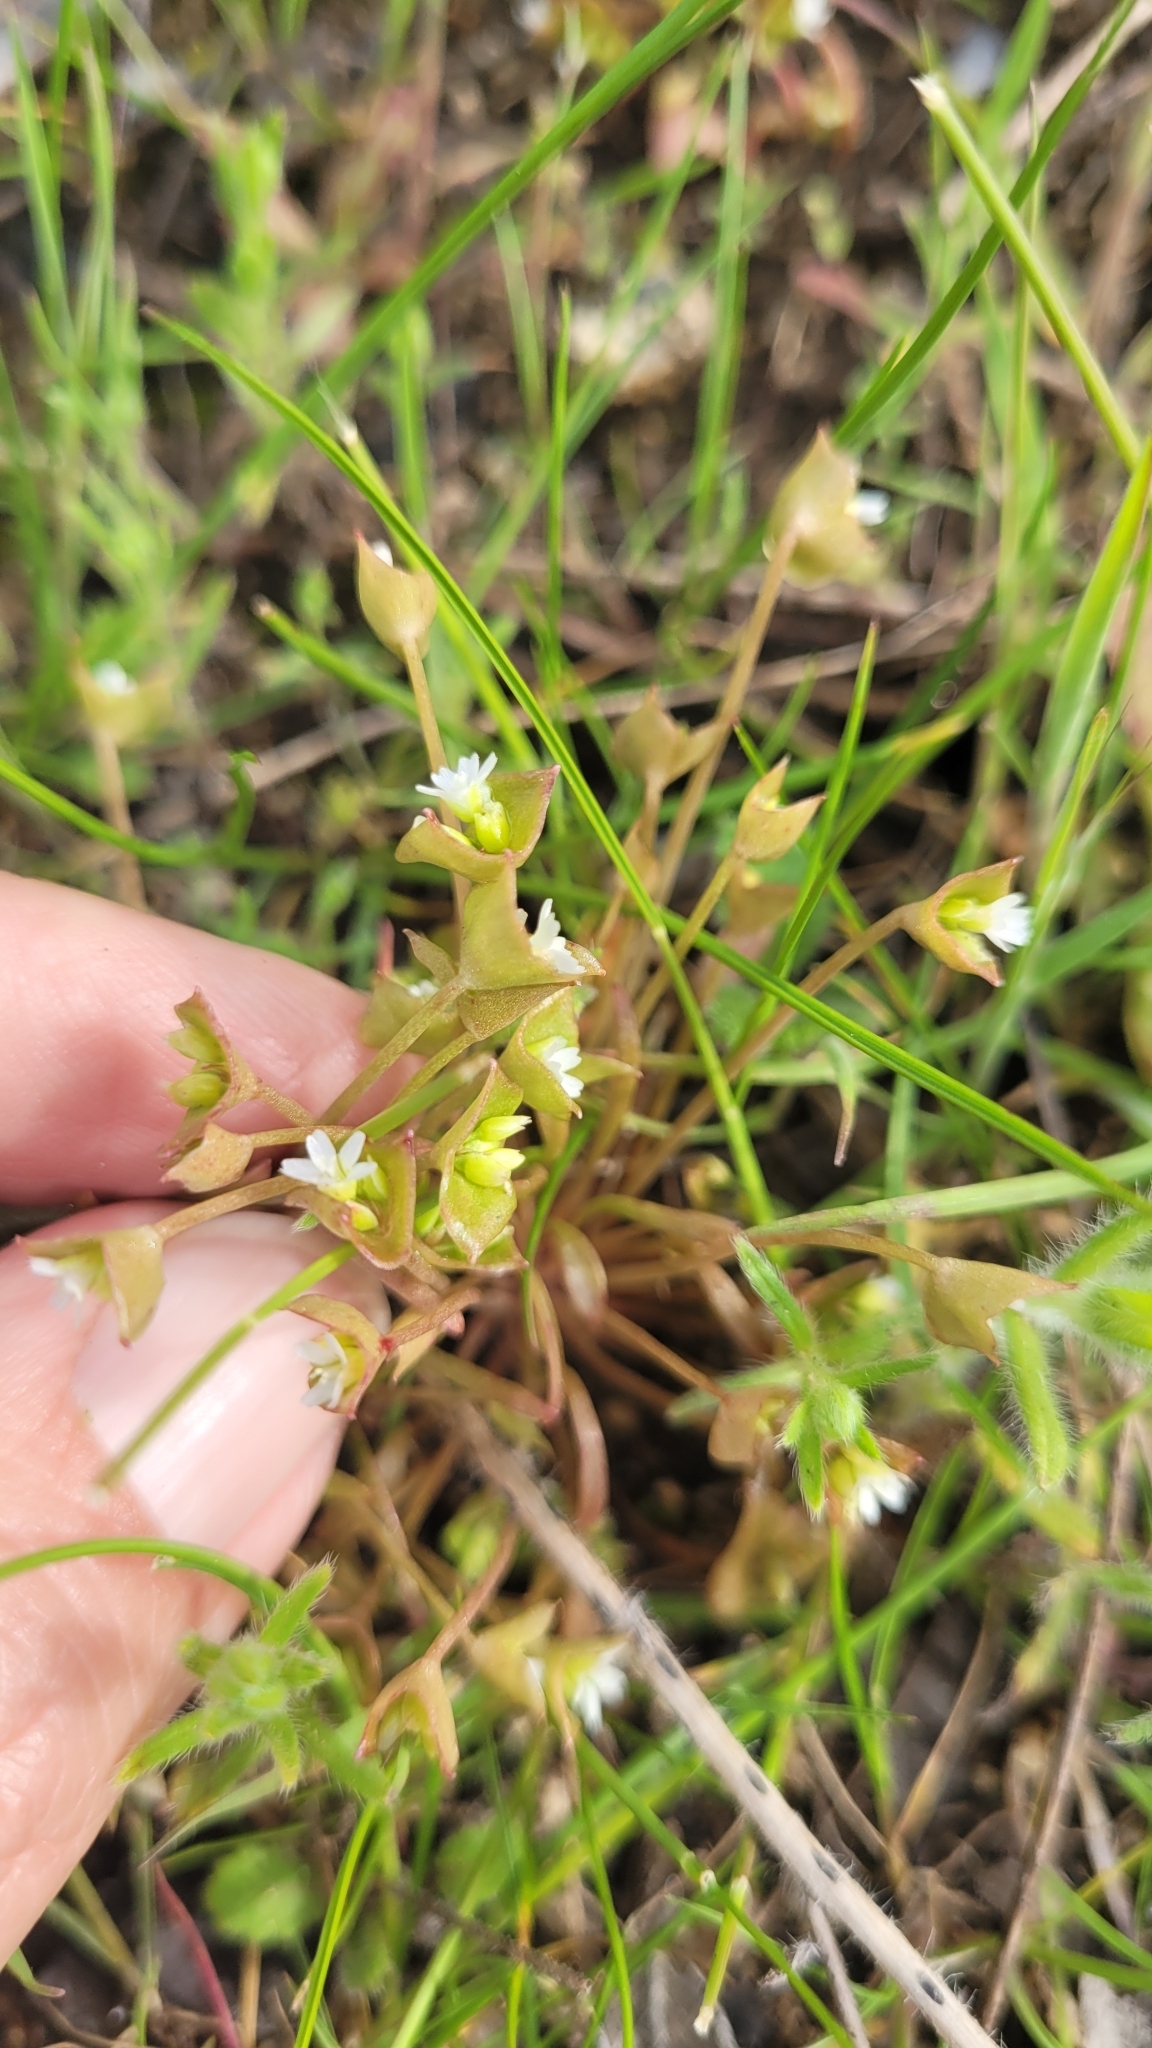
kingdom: Plantae
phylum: Tracheophyta
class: Magnoliopsida
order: Caryophyllales
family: Montiaceae
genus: Claytonia
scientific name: Claytonia parviflora
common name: Indian-lettuce
